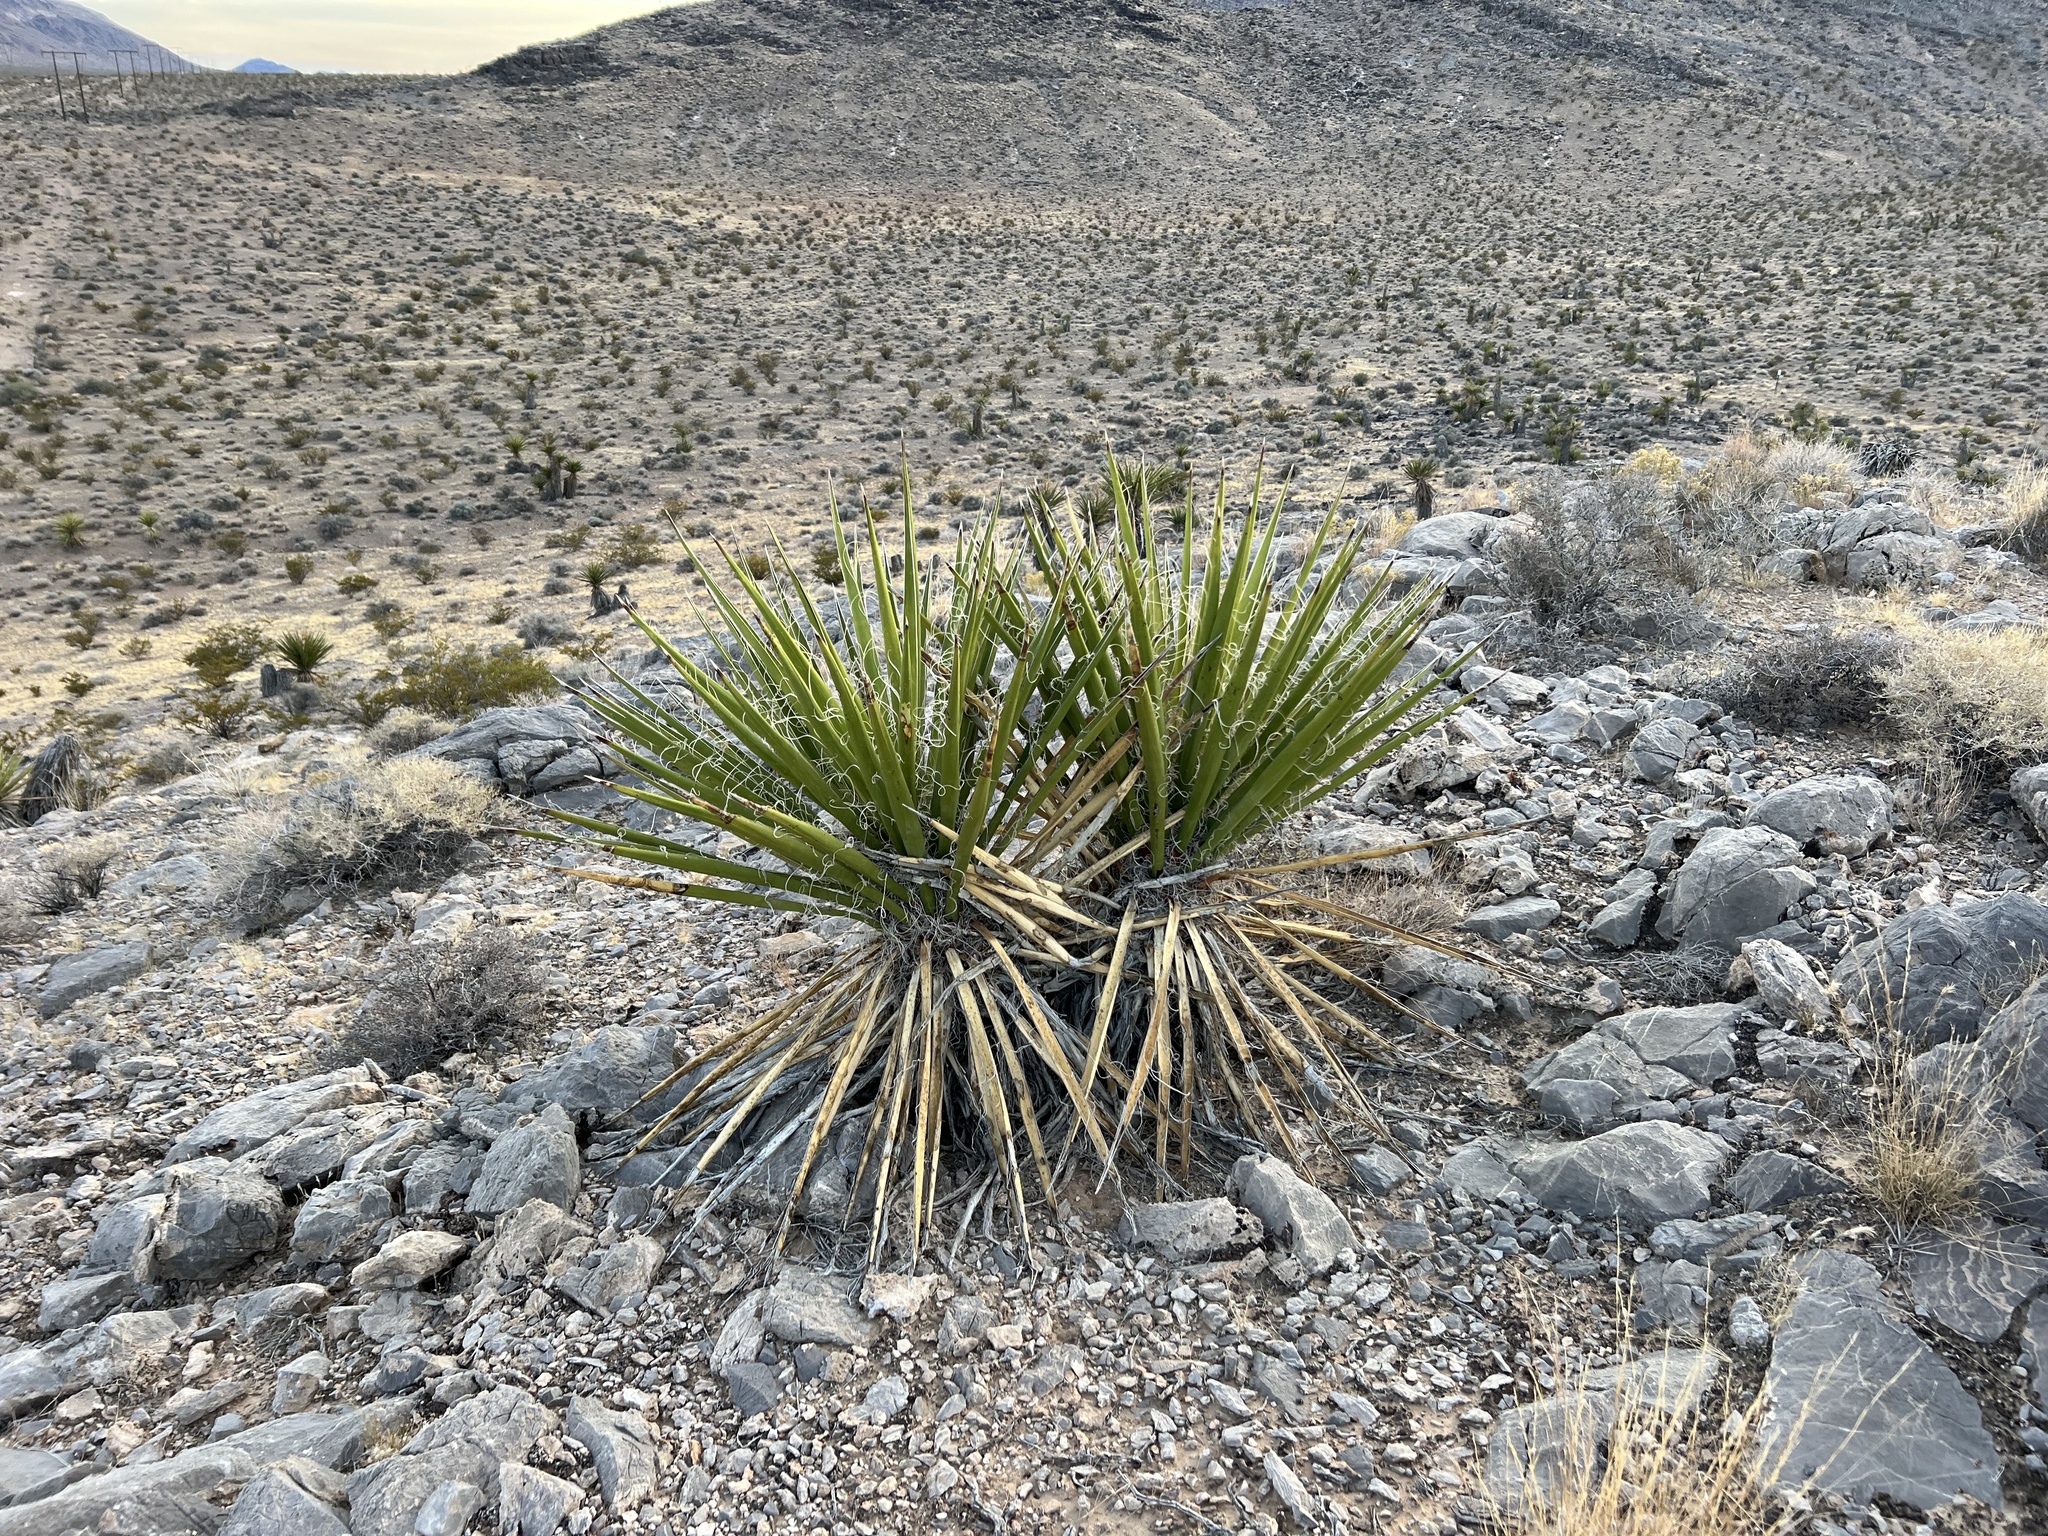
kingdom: Plantae
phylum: Tracheophyta
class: Liliopsida
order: Asparagales
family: Asparagaceae
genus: Yucca
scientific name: Yucca schidigera
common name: Mojave yucca
